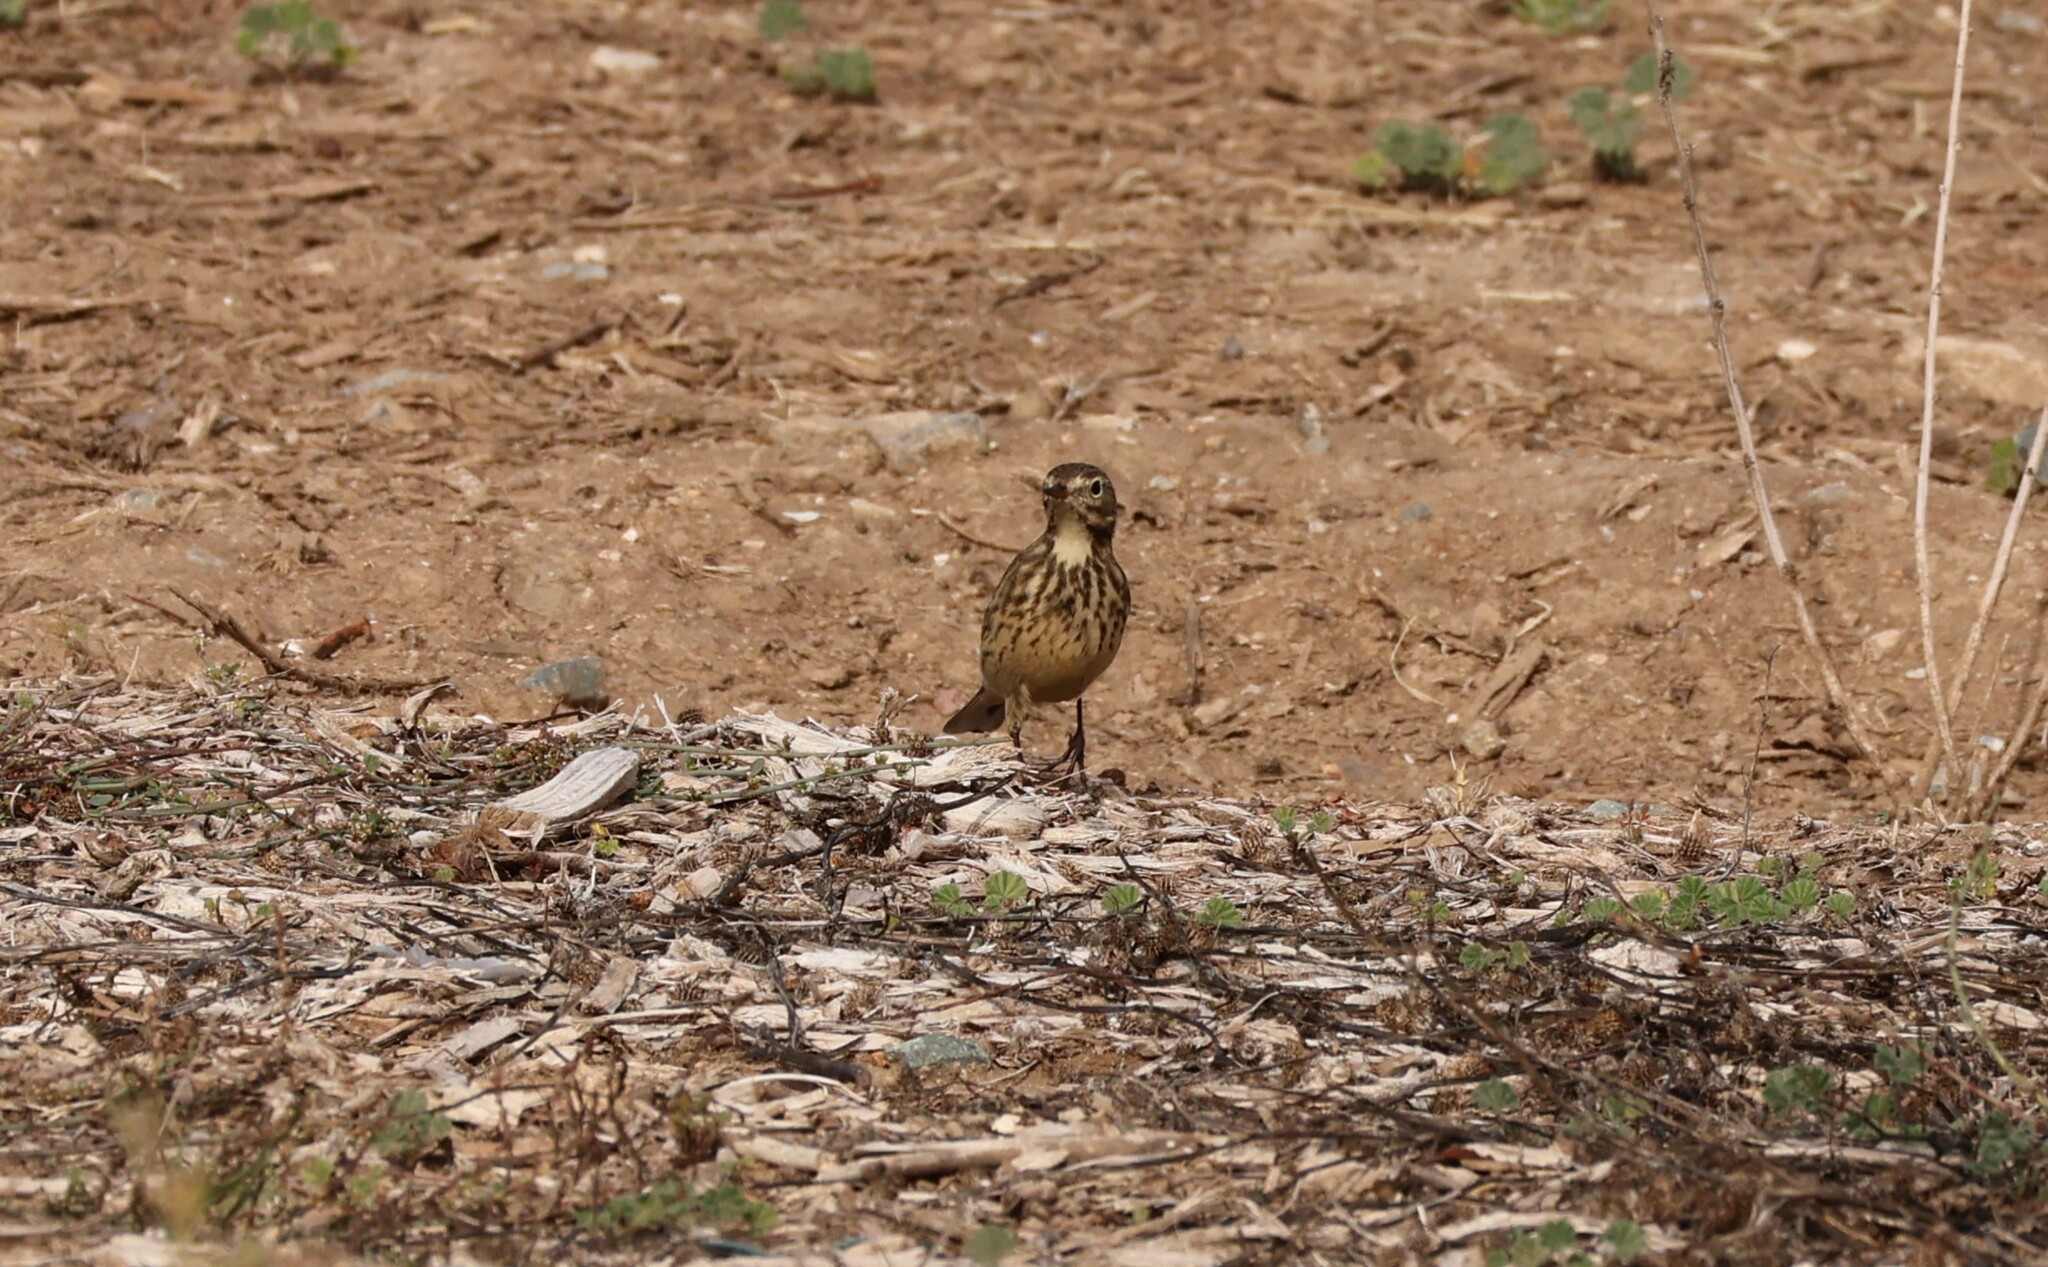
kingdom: Animalia
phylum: Chordata
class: Aves
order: Passeriformes
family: Motacillidae
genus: Anthus
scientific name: Anthus rubescens
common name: Buff-bellied pipit
